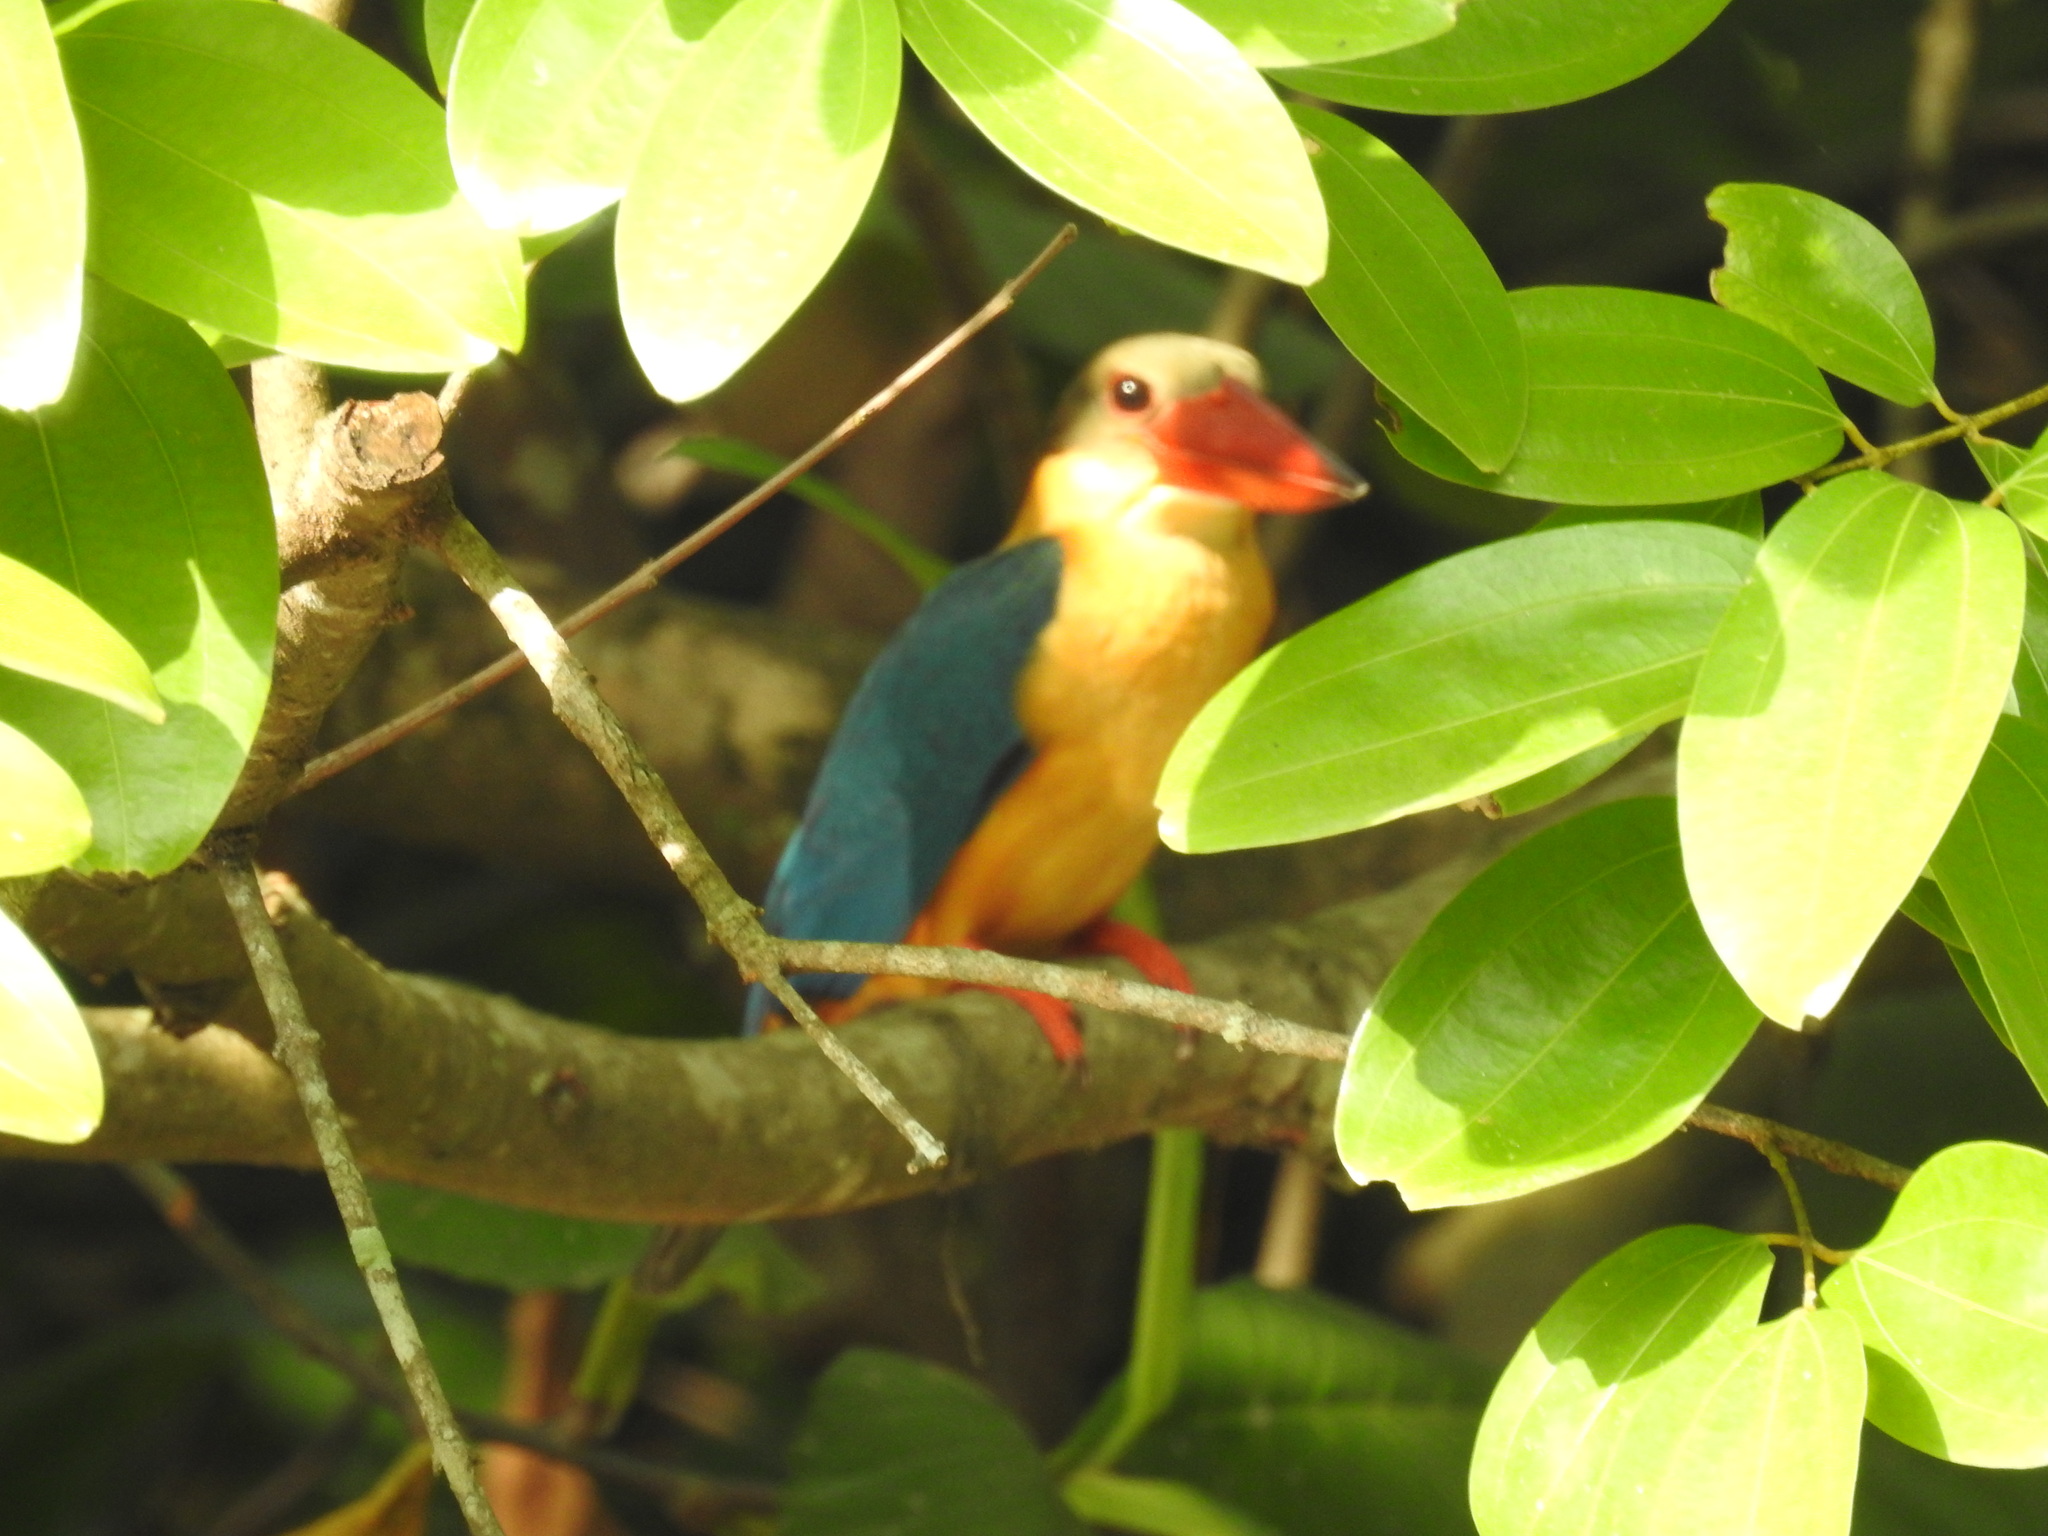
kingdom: Animalia
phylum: Chordata
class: Aves
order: Coraciiformes
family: Alcedinidae
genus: Pelargopsis
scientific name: Pelargopsis capensis
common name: Stork-billed kingfisher
